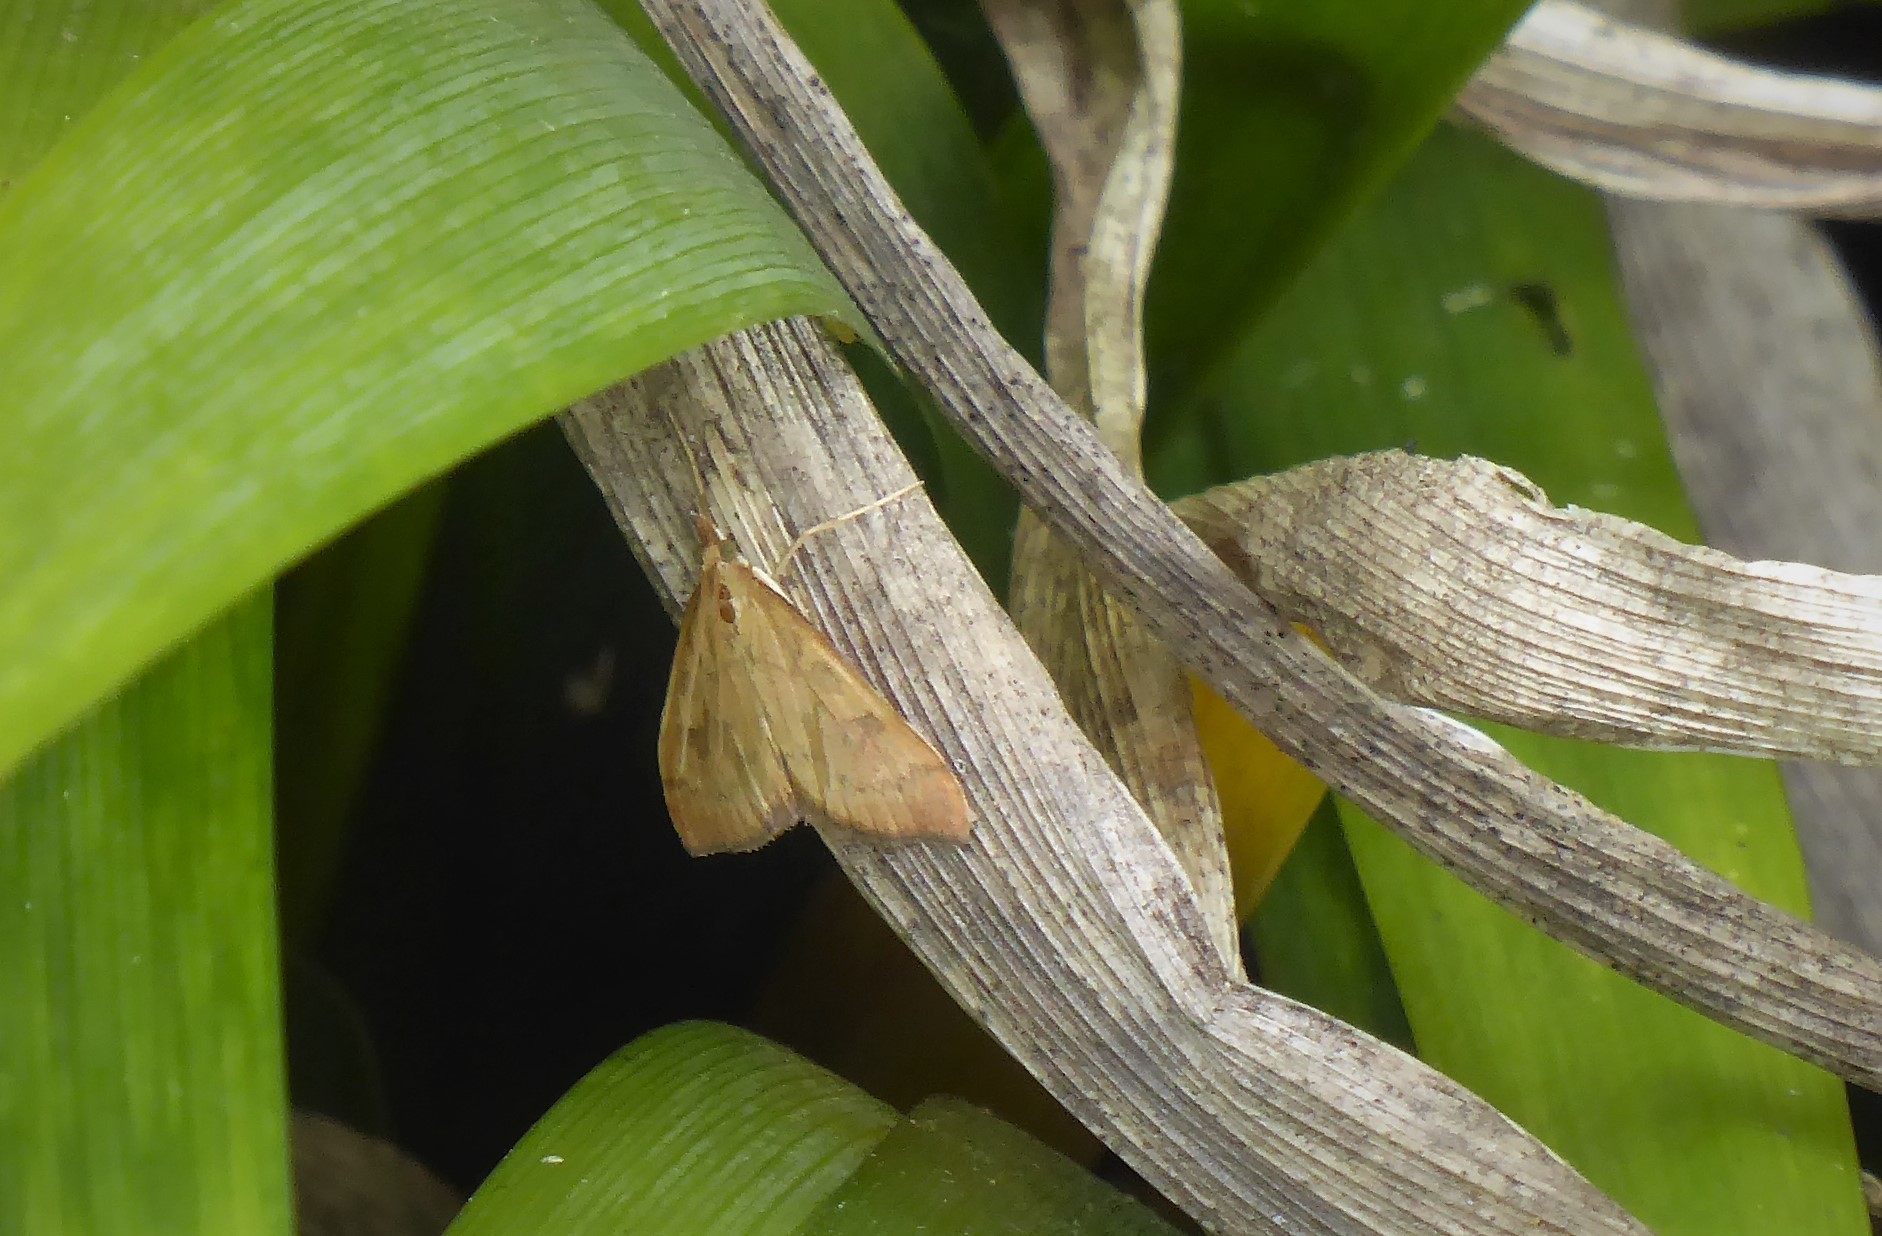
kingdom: Animalia
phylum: Arthropoda
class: Insecta
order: Lepidoptera
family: Crambidae
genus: Udea
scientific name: Udea Mnesictena flavidalis
